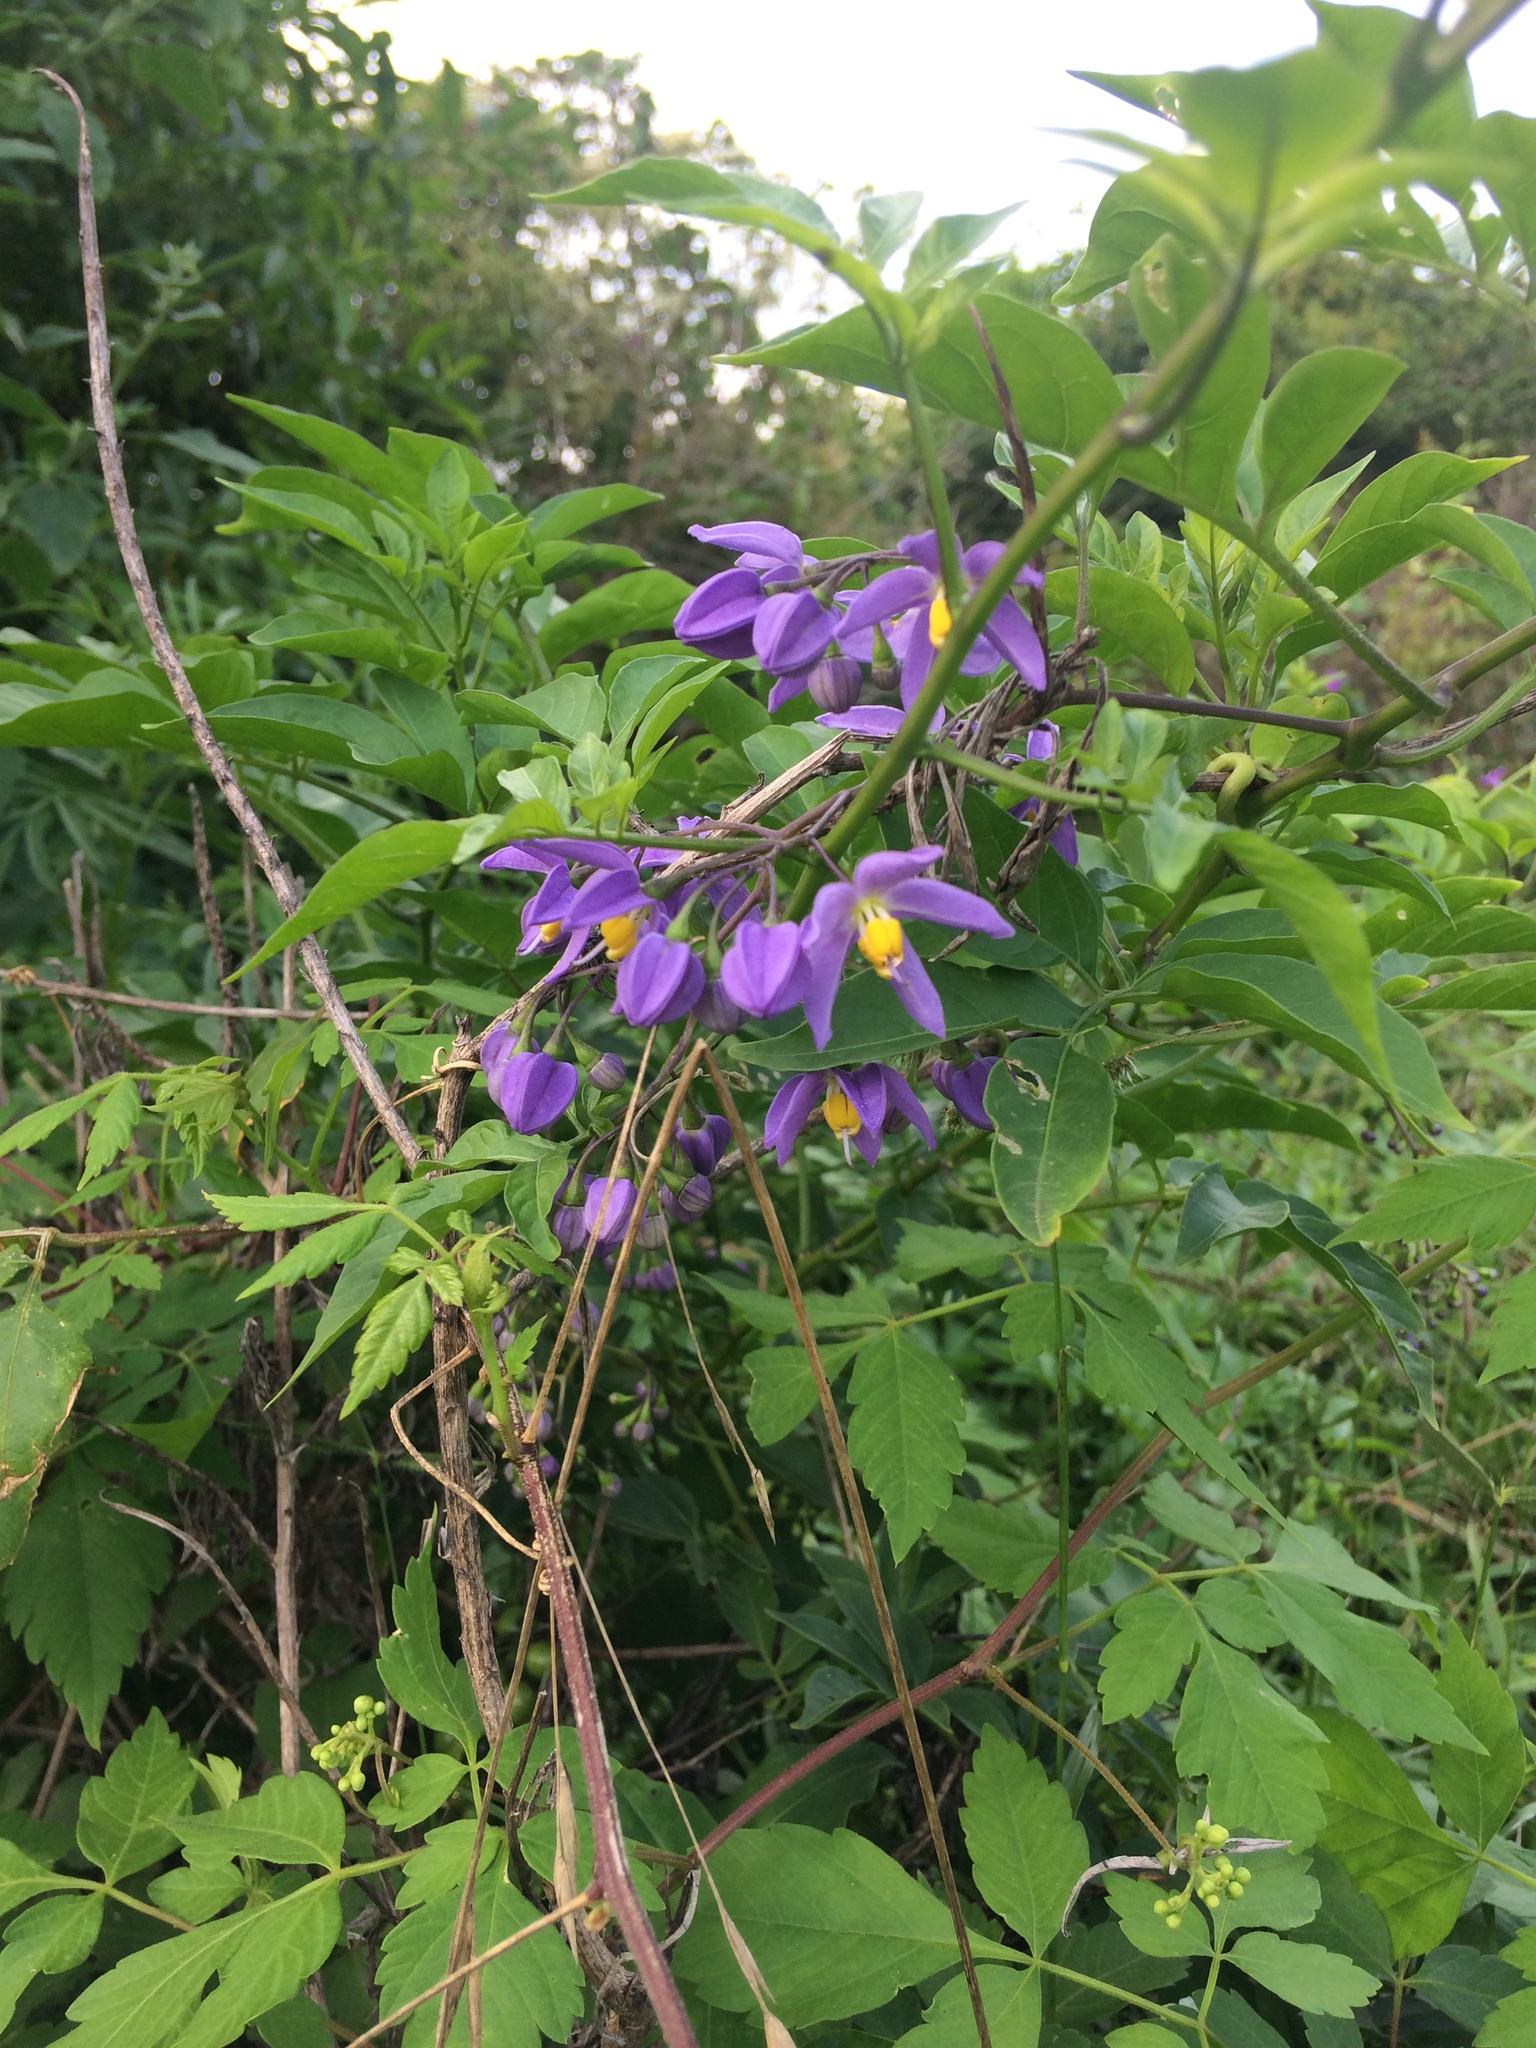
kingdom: Plantae
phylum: Tracheophyta
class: Magnoliopsida
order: Solanales
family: Solanaceae
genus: Solanum
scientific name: Solanum seaforthianum
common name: Brazilian nightshade
